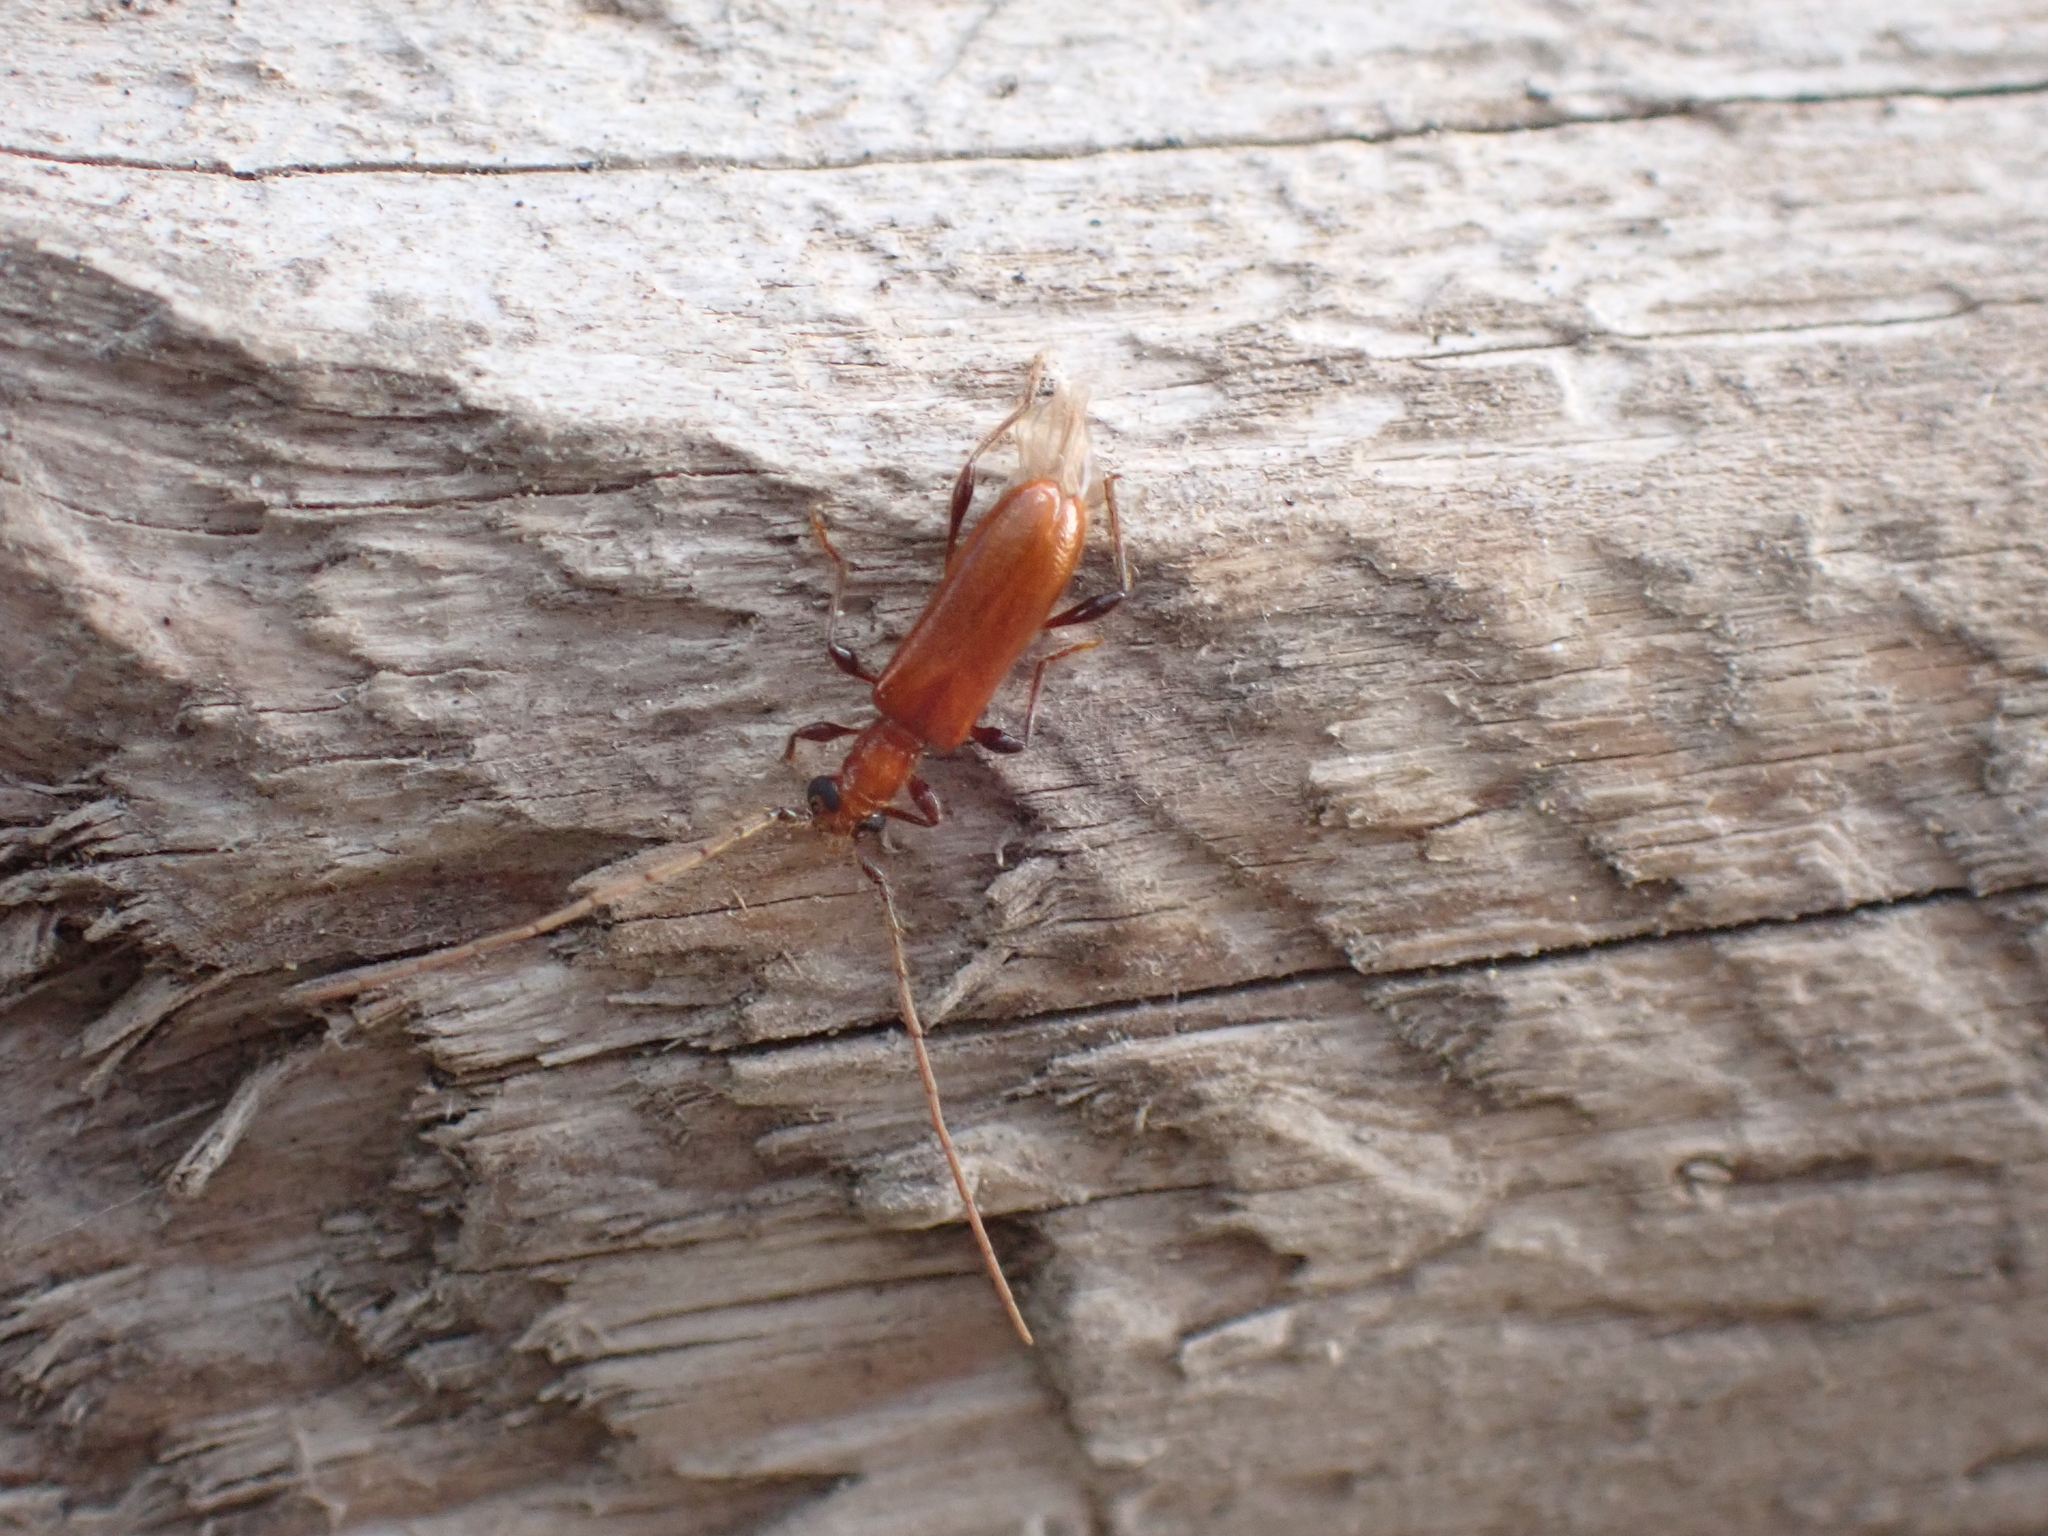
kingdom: Animalia
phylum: Arthropoda
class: Insecta
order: Coleoptera
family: Cerambycidae
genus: Obrium
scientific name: Obrium cantharinum
